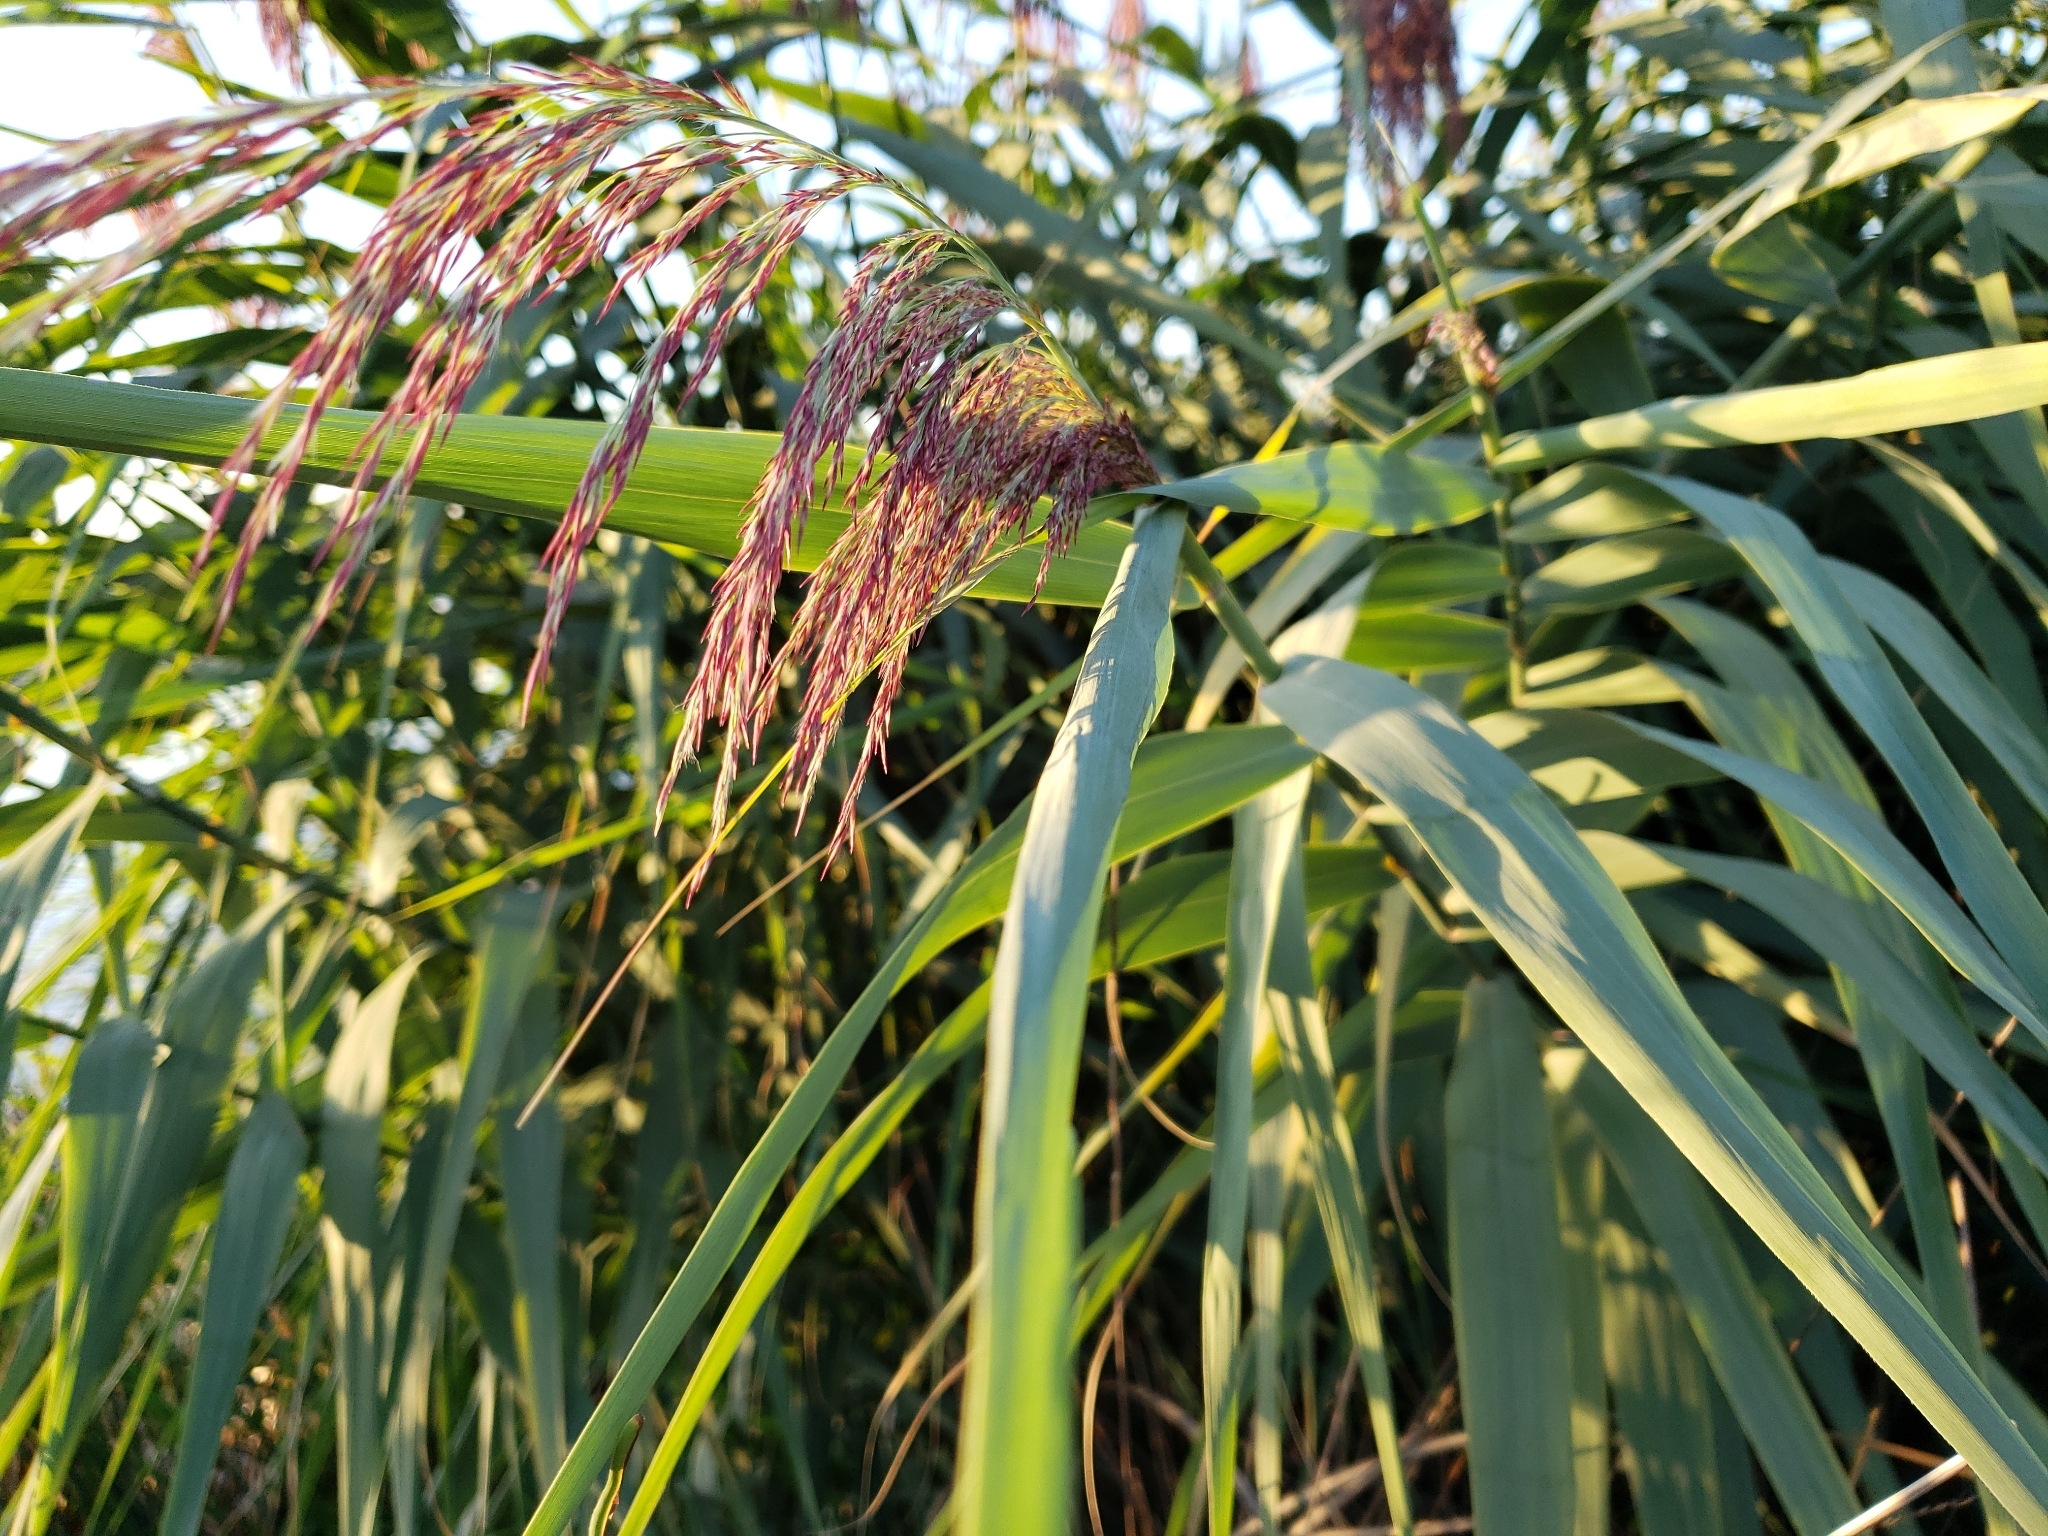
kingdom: Plantae
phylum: Tracheophyta
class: Liliopsida
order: Poales
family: Poaceae
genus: Phragmites
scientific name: Phragmites australis
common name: Common reed
